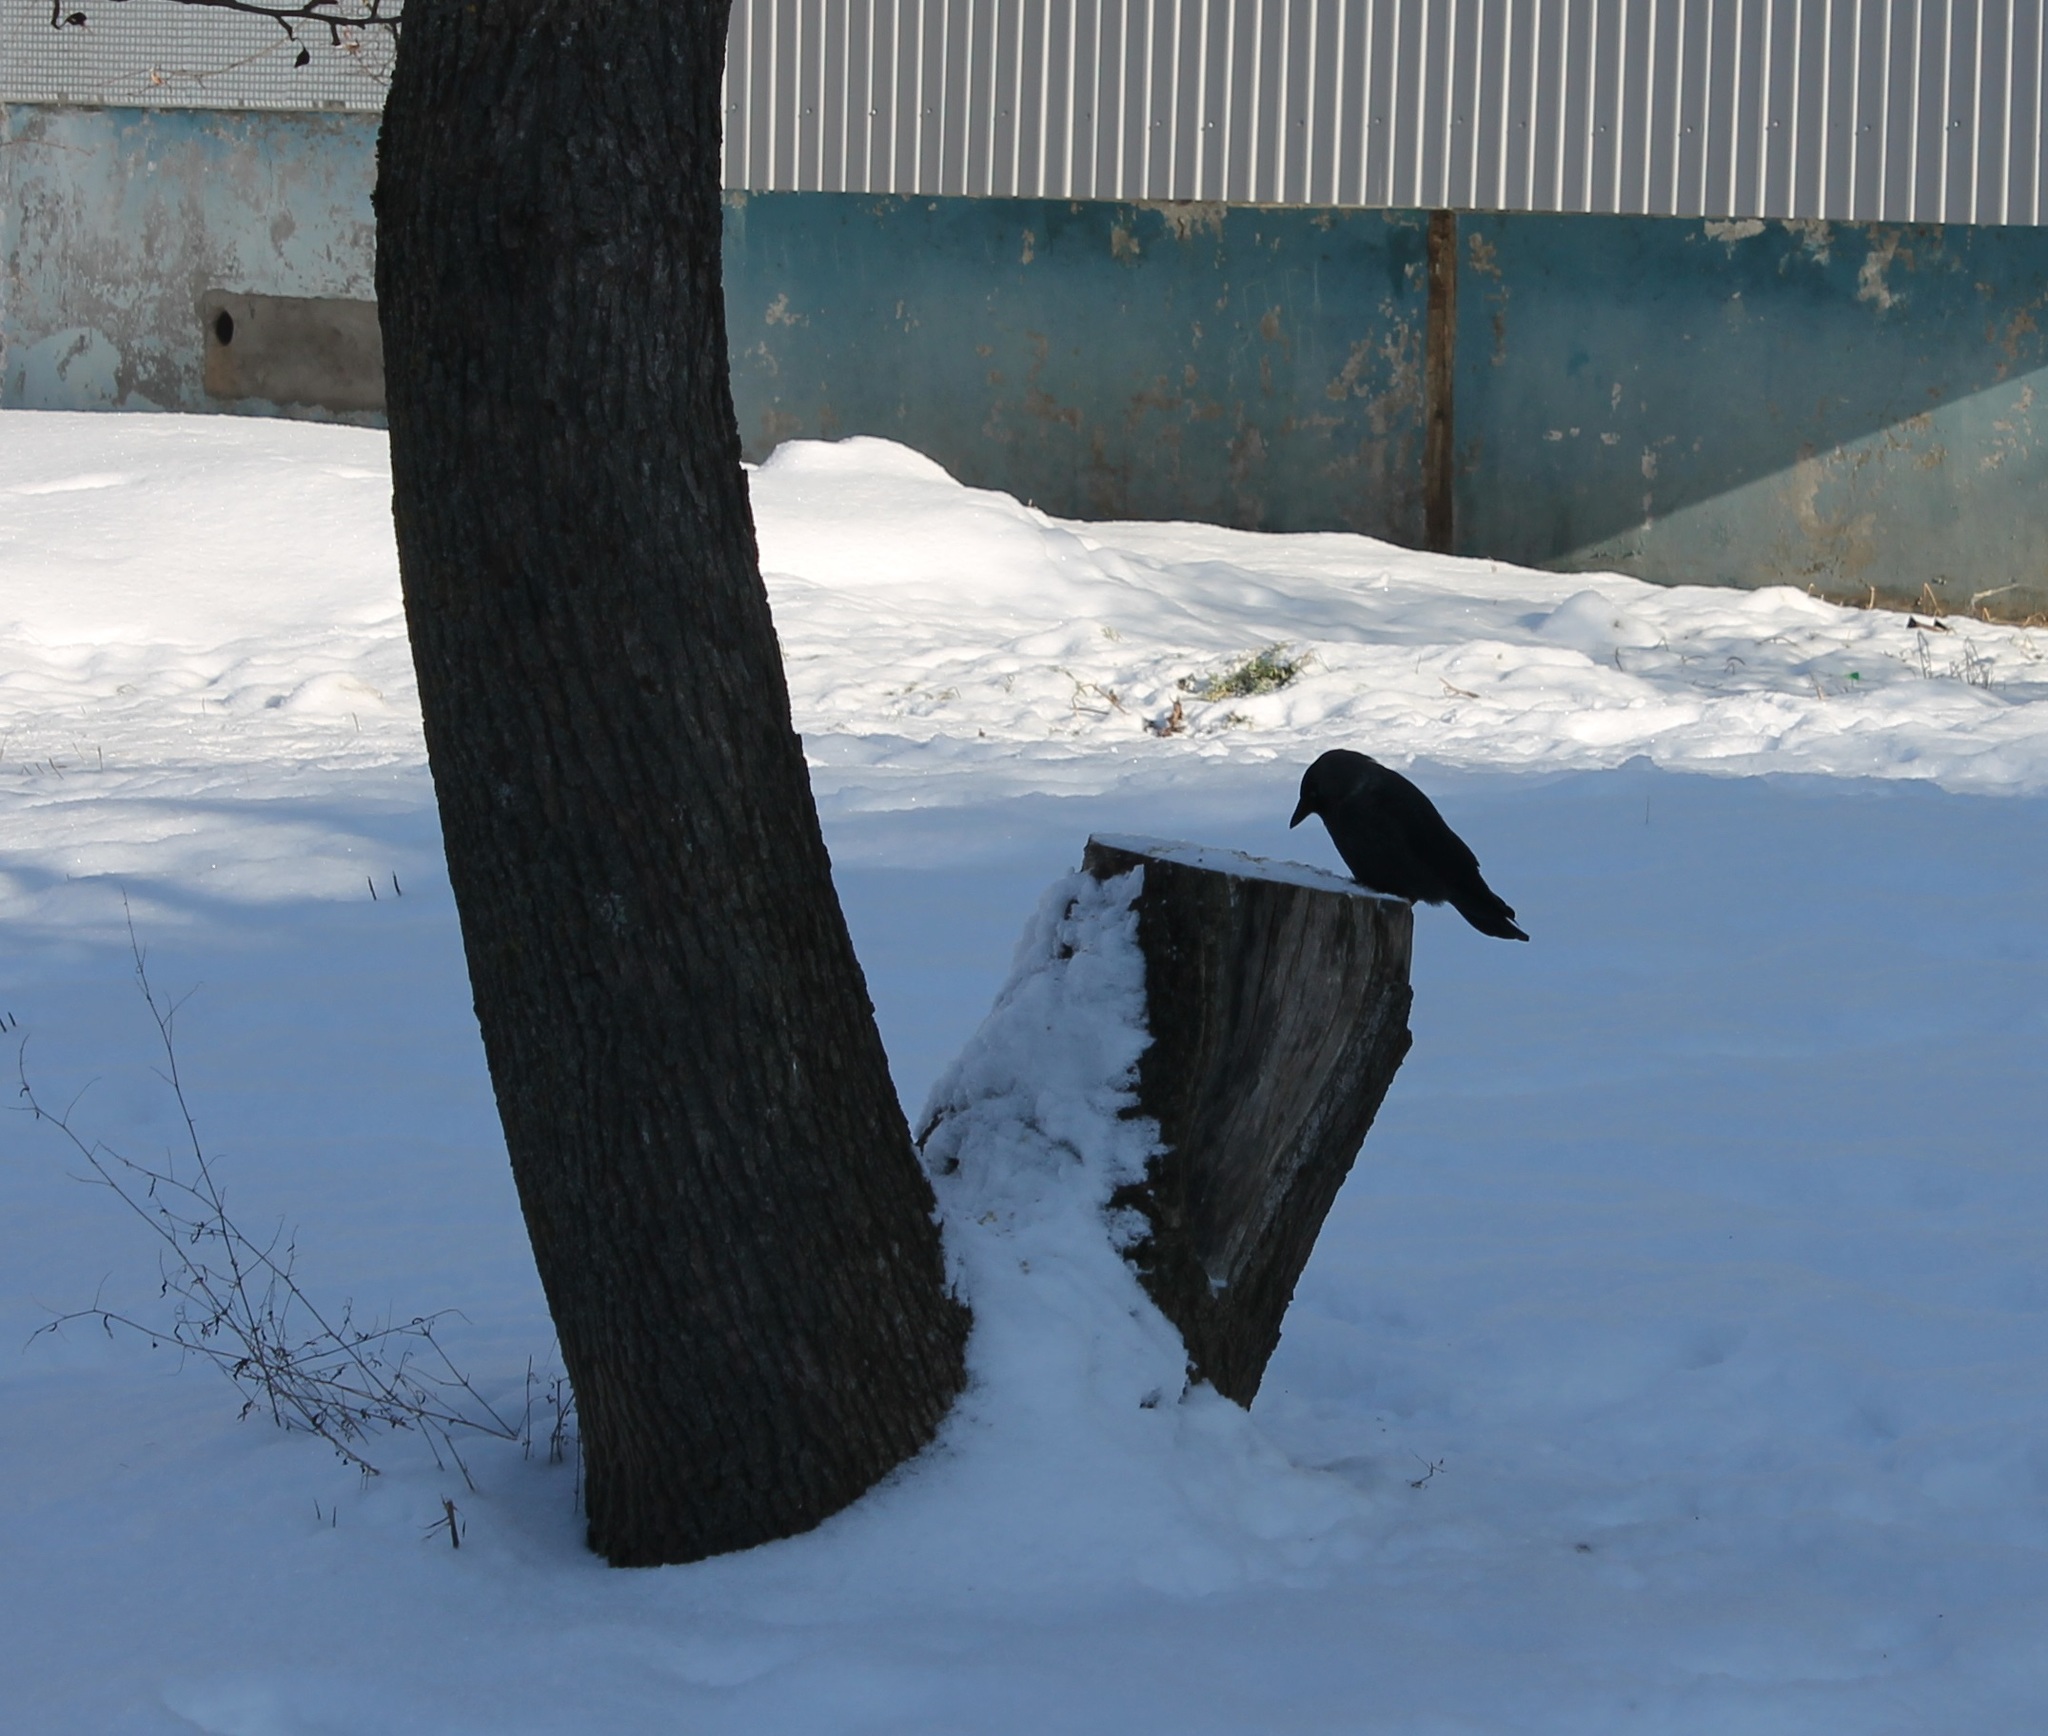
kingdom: Animalia
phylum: Chordata
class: Aves
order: Passeriformes
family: Corvidae
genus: Coloeus
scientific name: Coloeus monedula
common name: Western jackdaw
